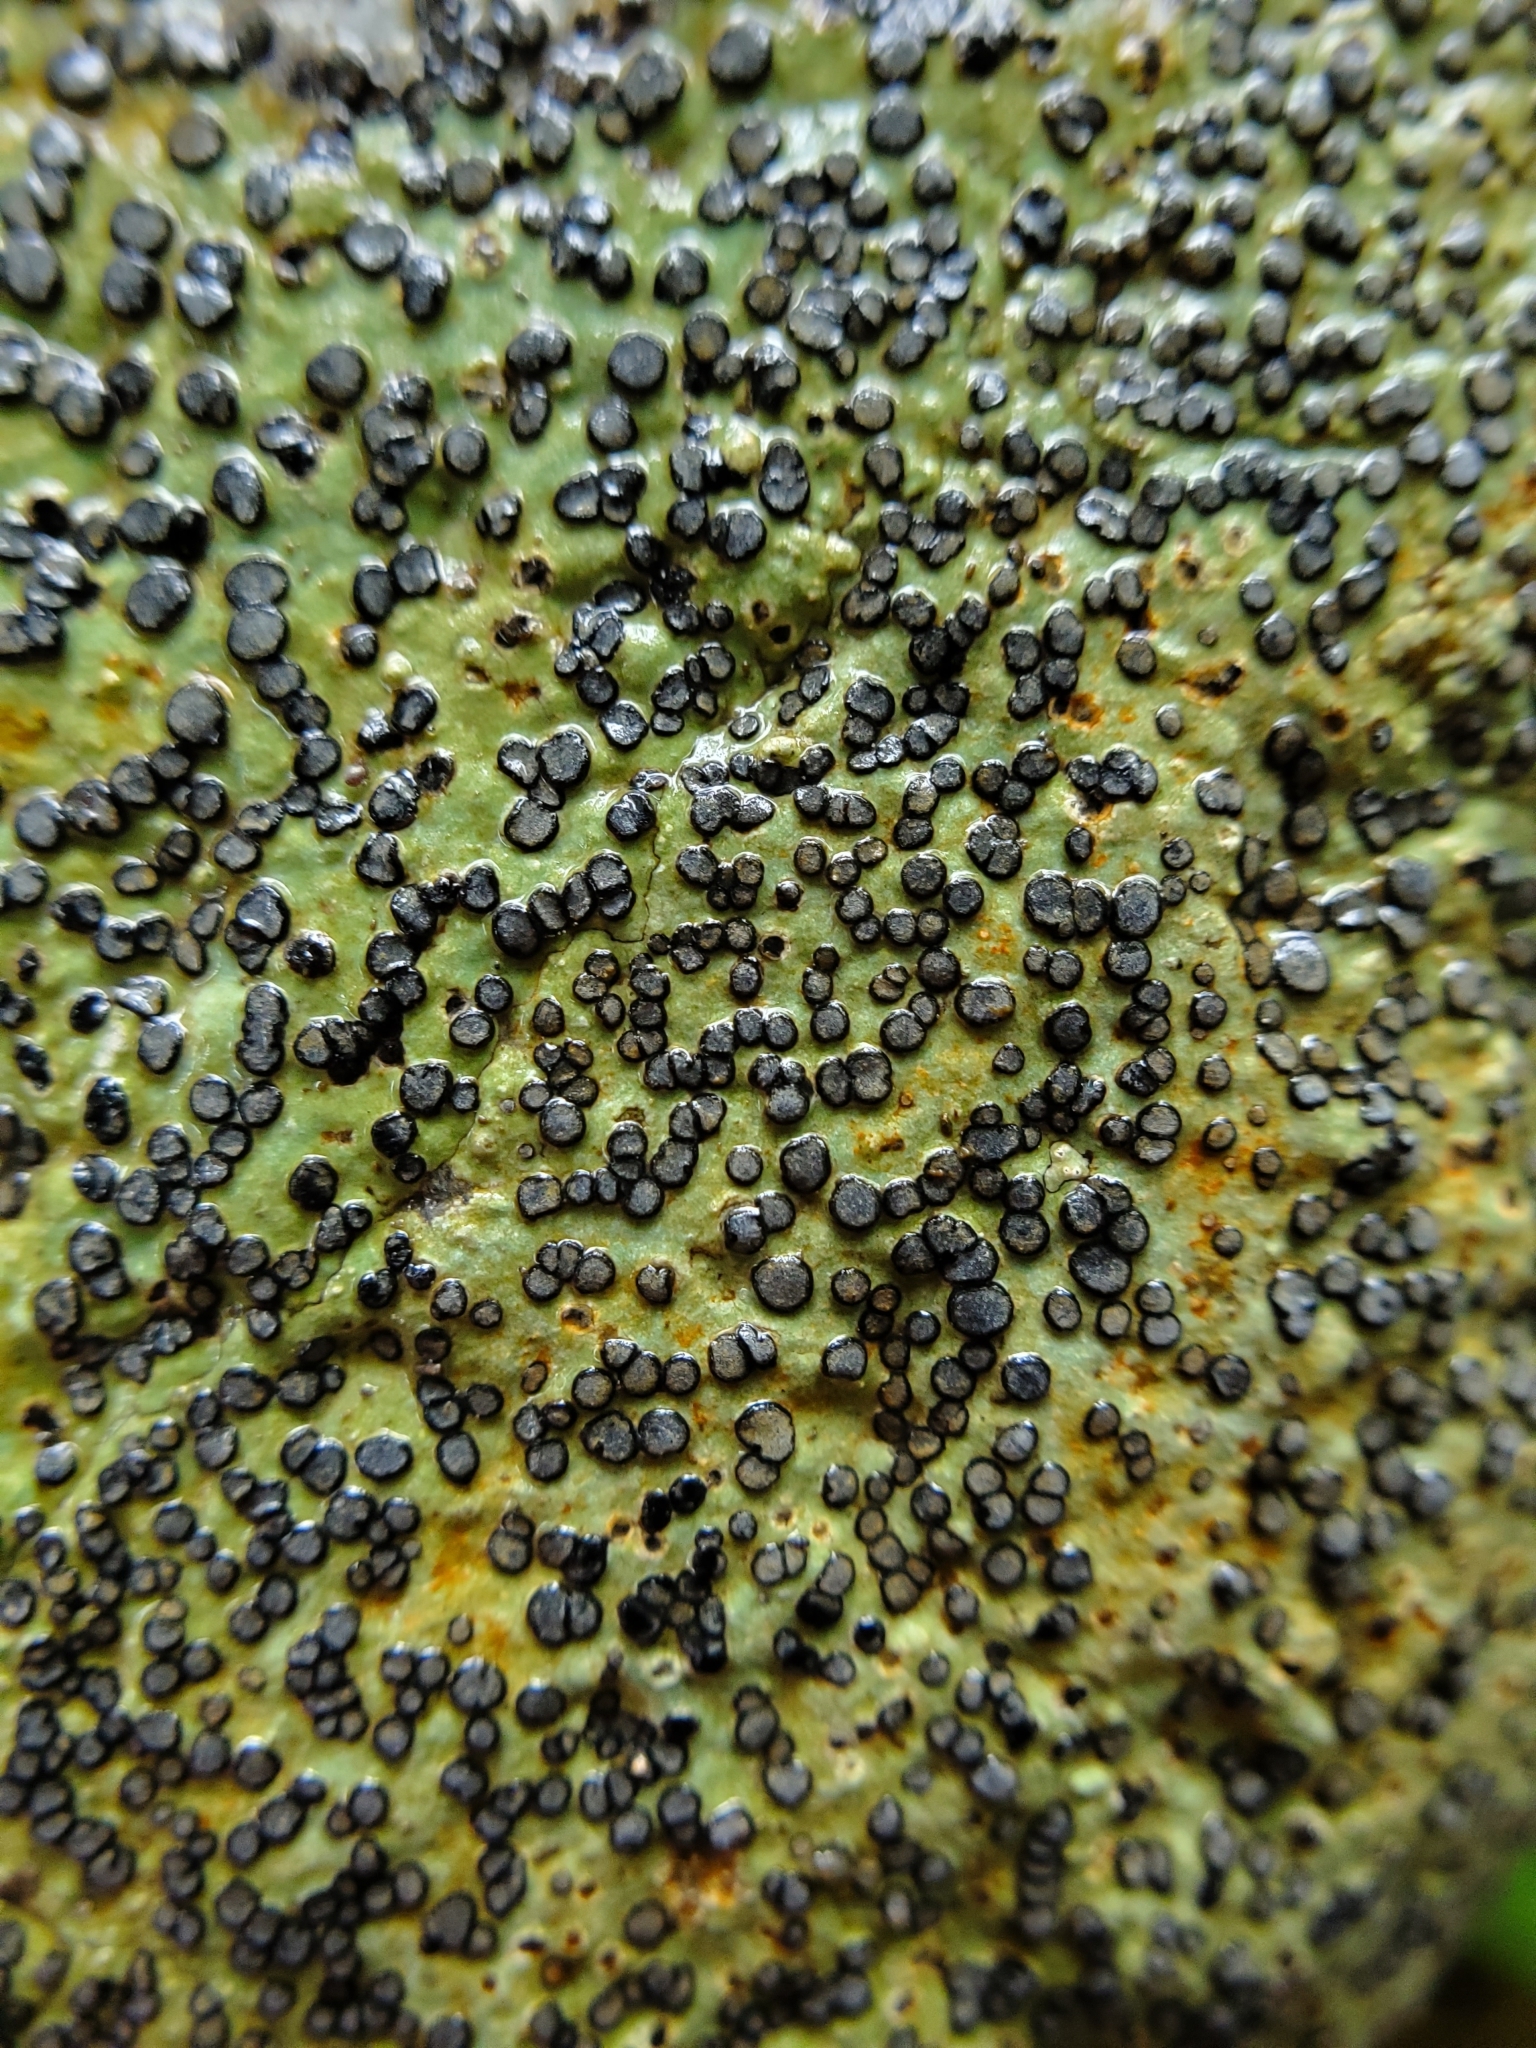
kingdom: Fungi
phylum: Ascomycota
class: Lecanoromycetes
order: Lecideales
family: Lecideaceae
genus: Porpidia
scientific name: Porpidia albocaerulescens
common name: Smokey-eyed boulder lichen
